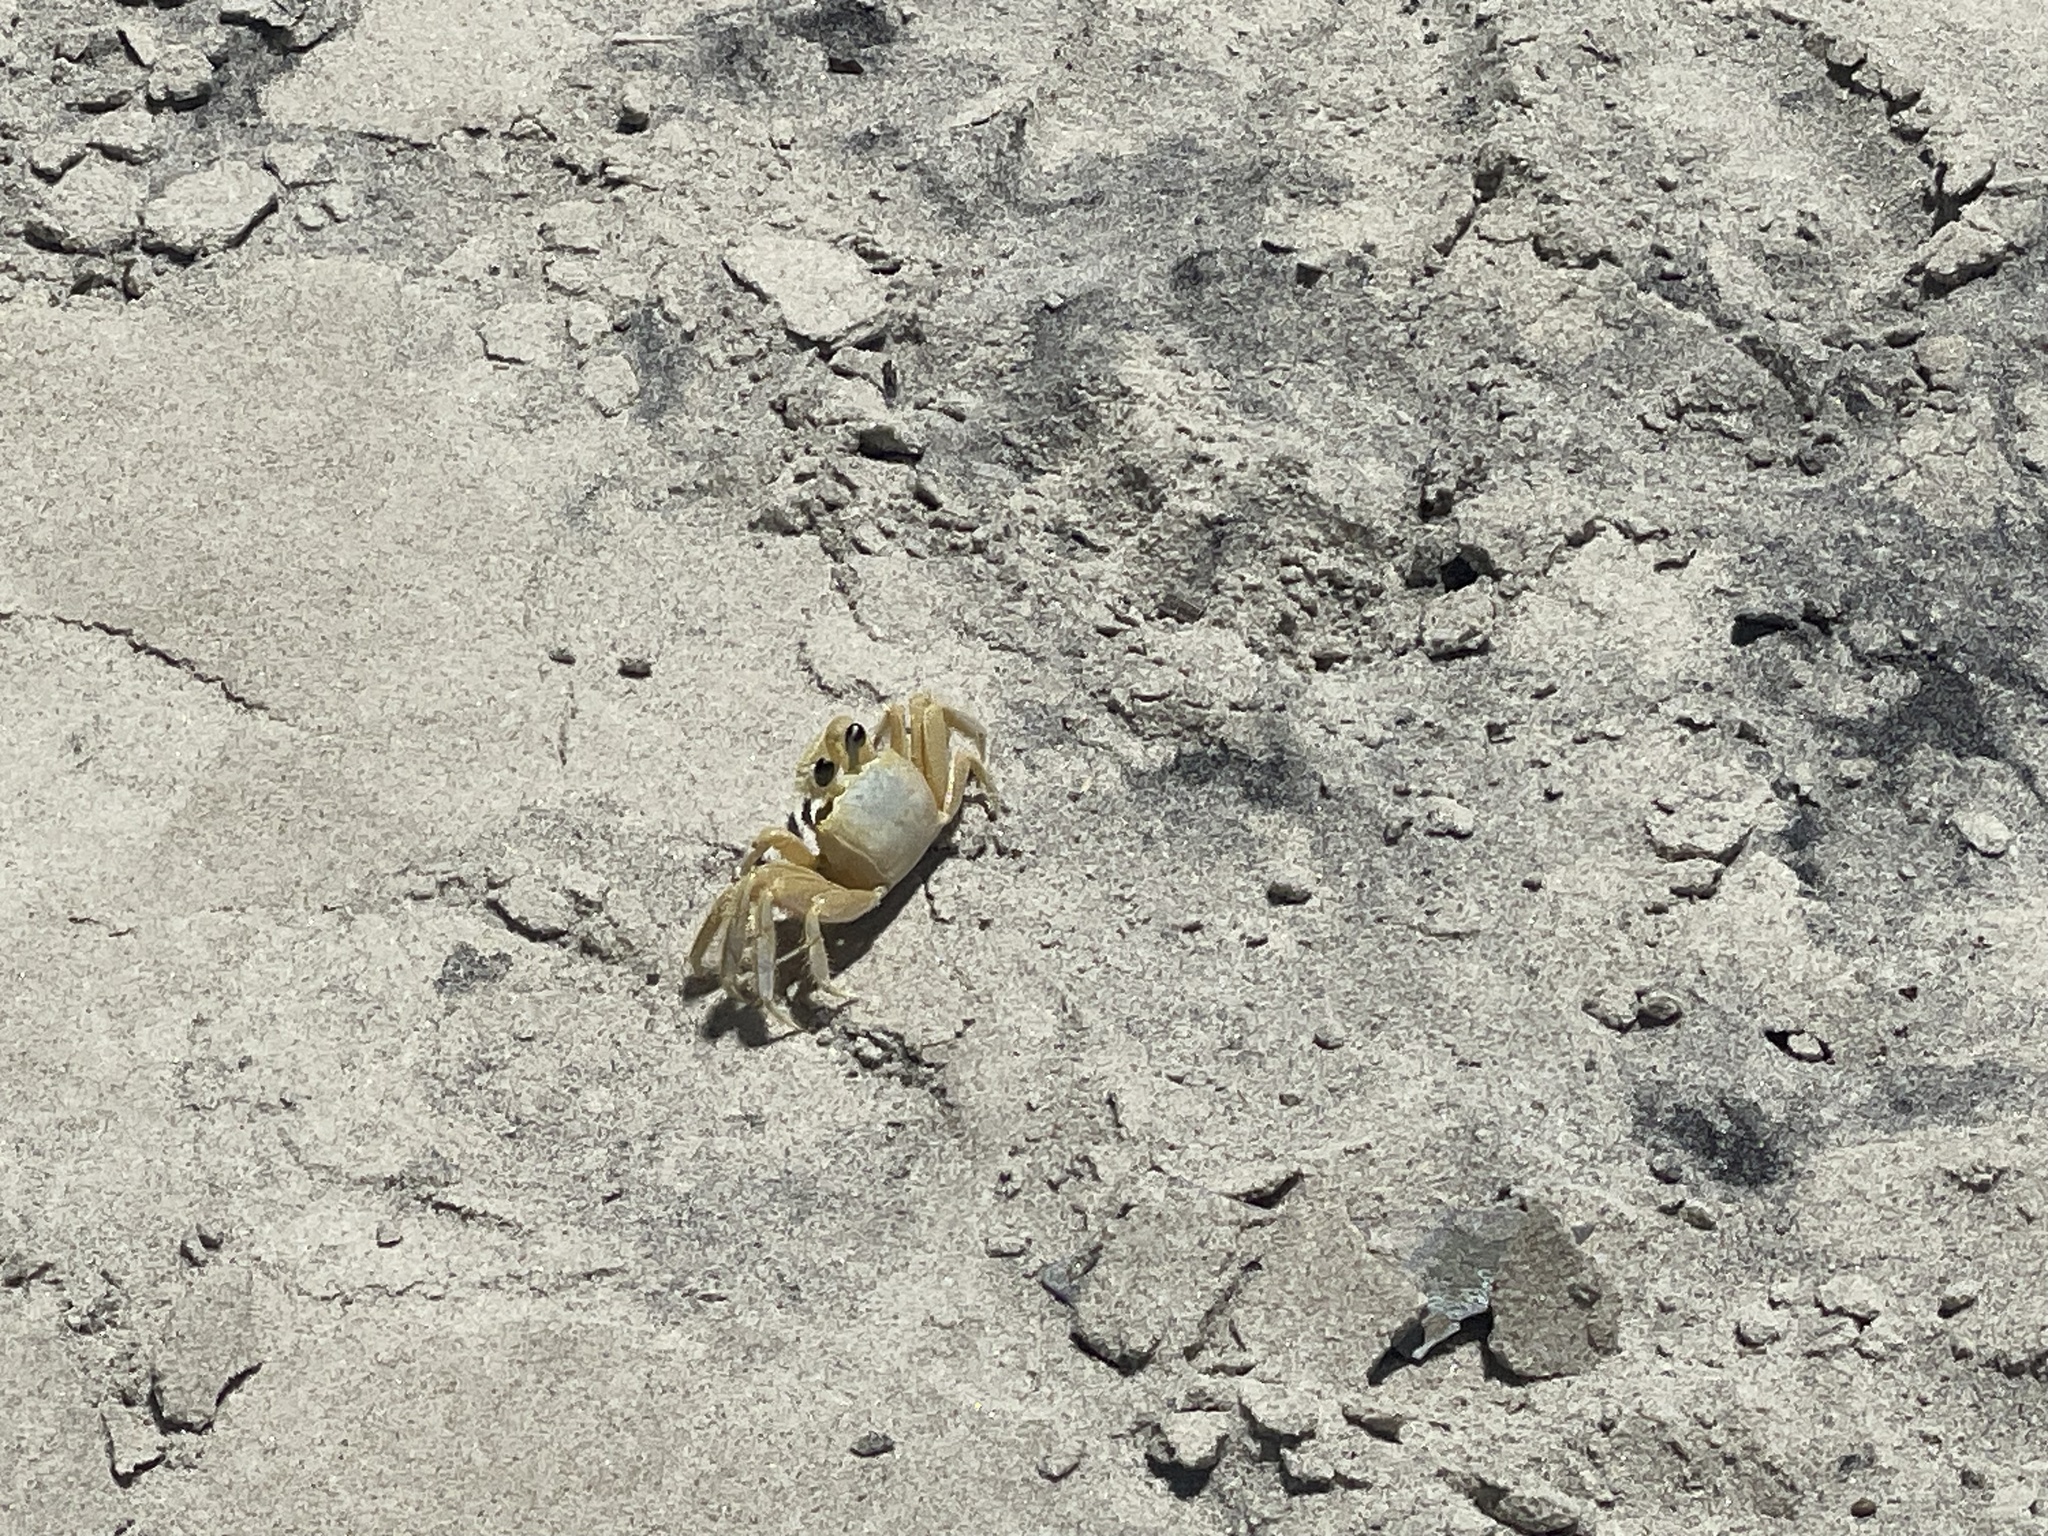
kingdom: Animalia
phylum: Arthropoda
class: Malacostraca
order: Decapoda
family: Ocypodidae
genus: Ocypode
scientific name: Ocypode quadrata
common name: Ghost crab
